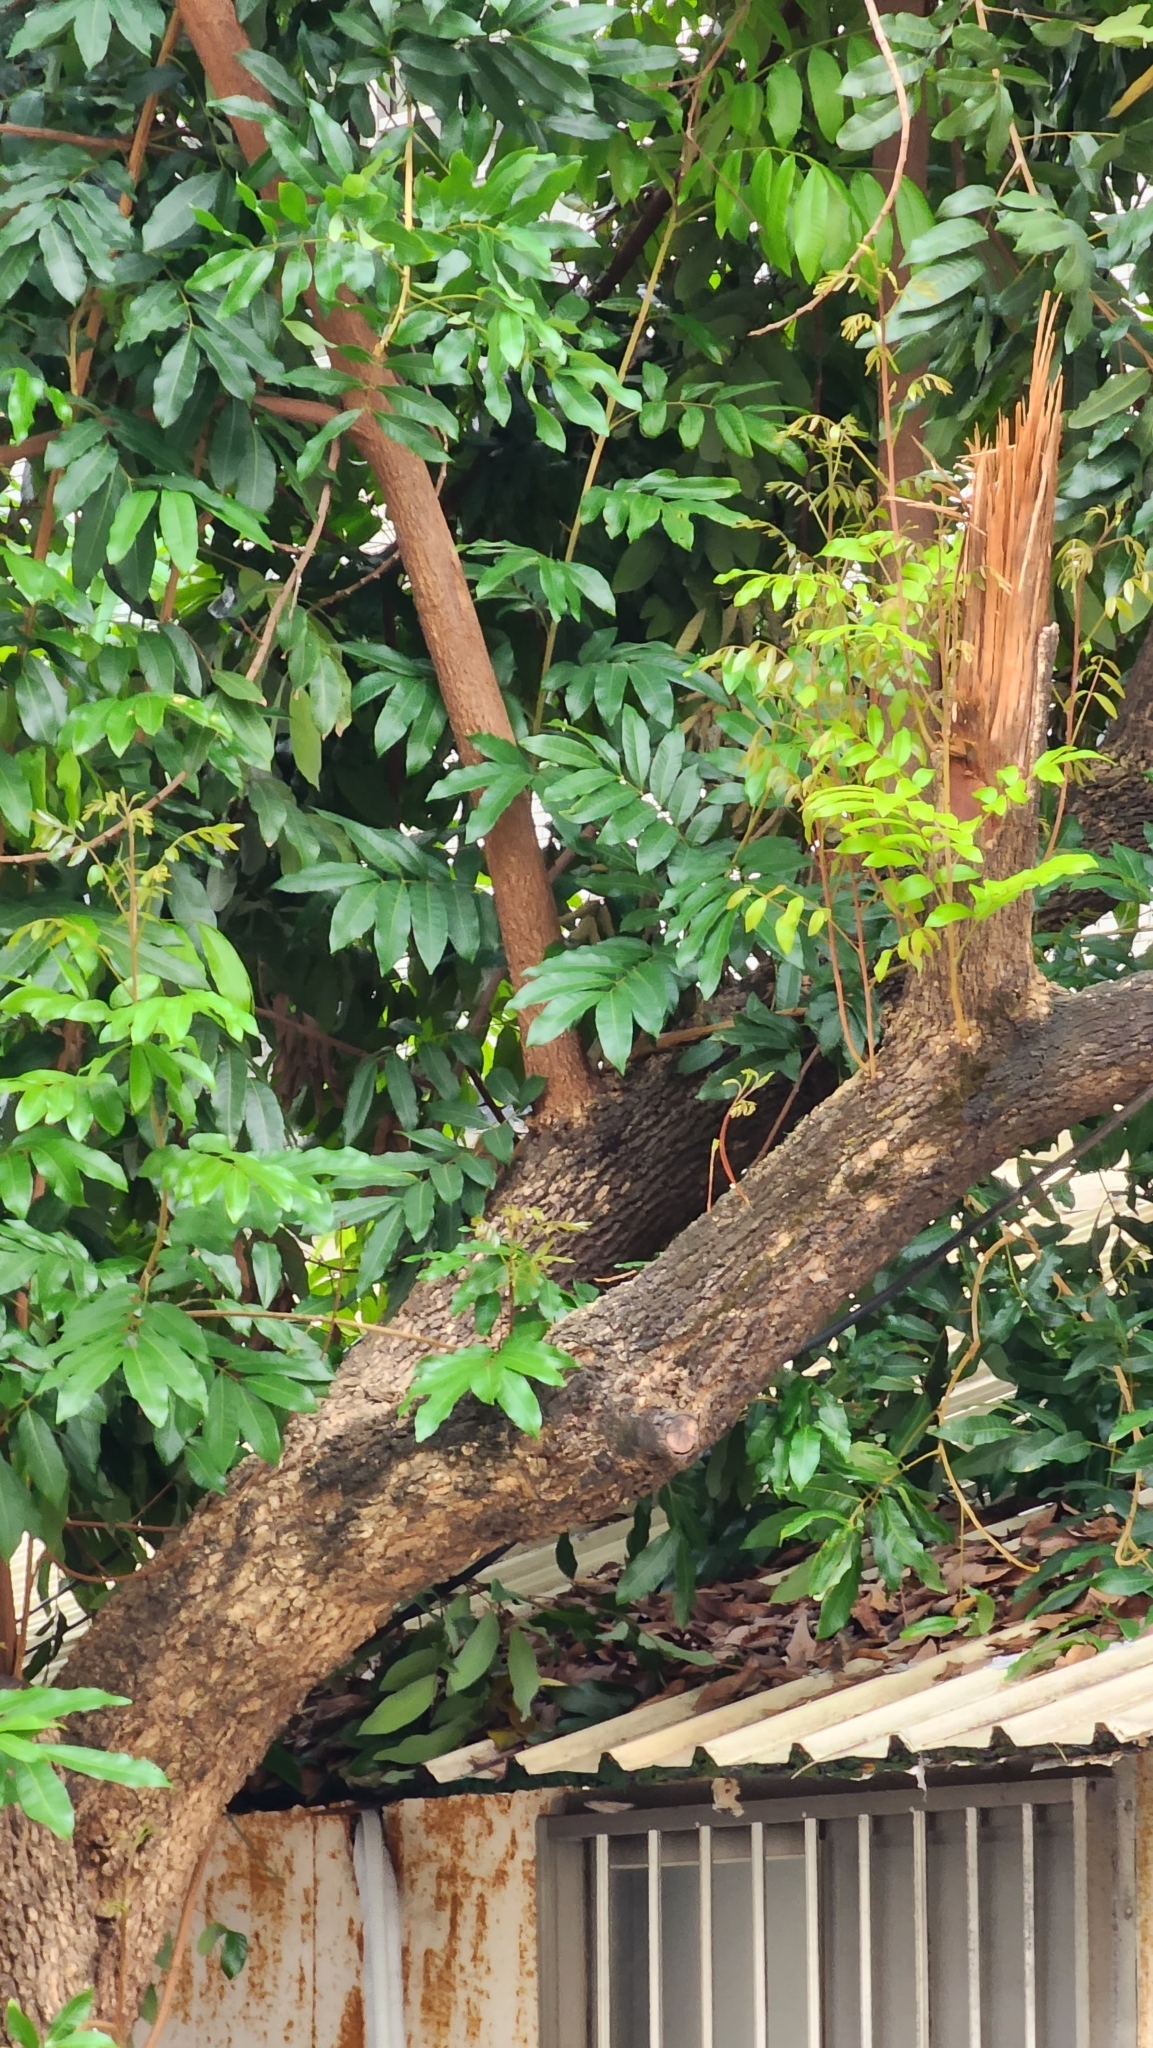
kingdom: Plantae
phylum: Tracheophyta
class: Magnoliopsida
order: Sapindales
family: Sapindaceae
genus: Dimocarpus
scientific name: Dimocarpus longan
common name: Longan
